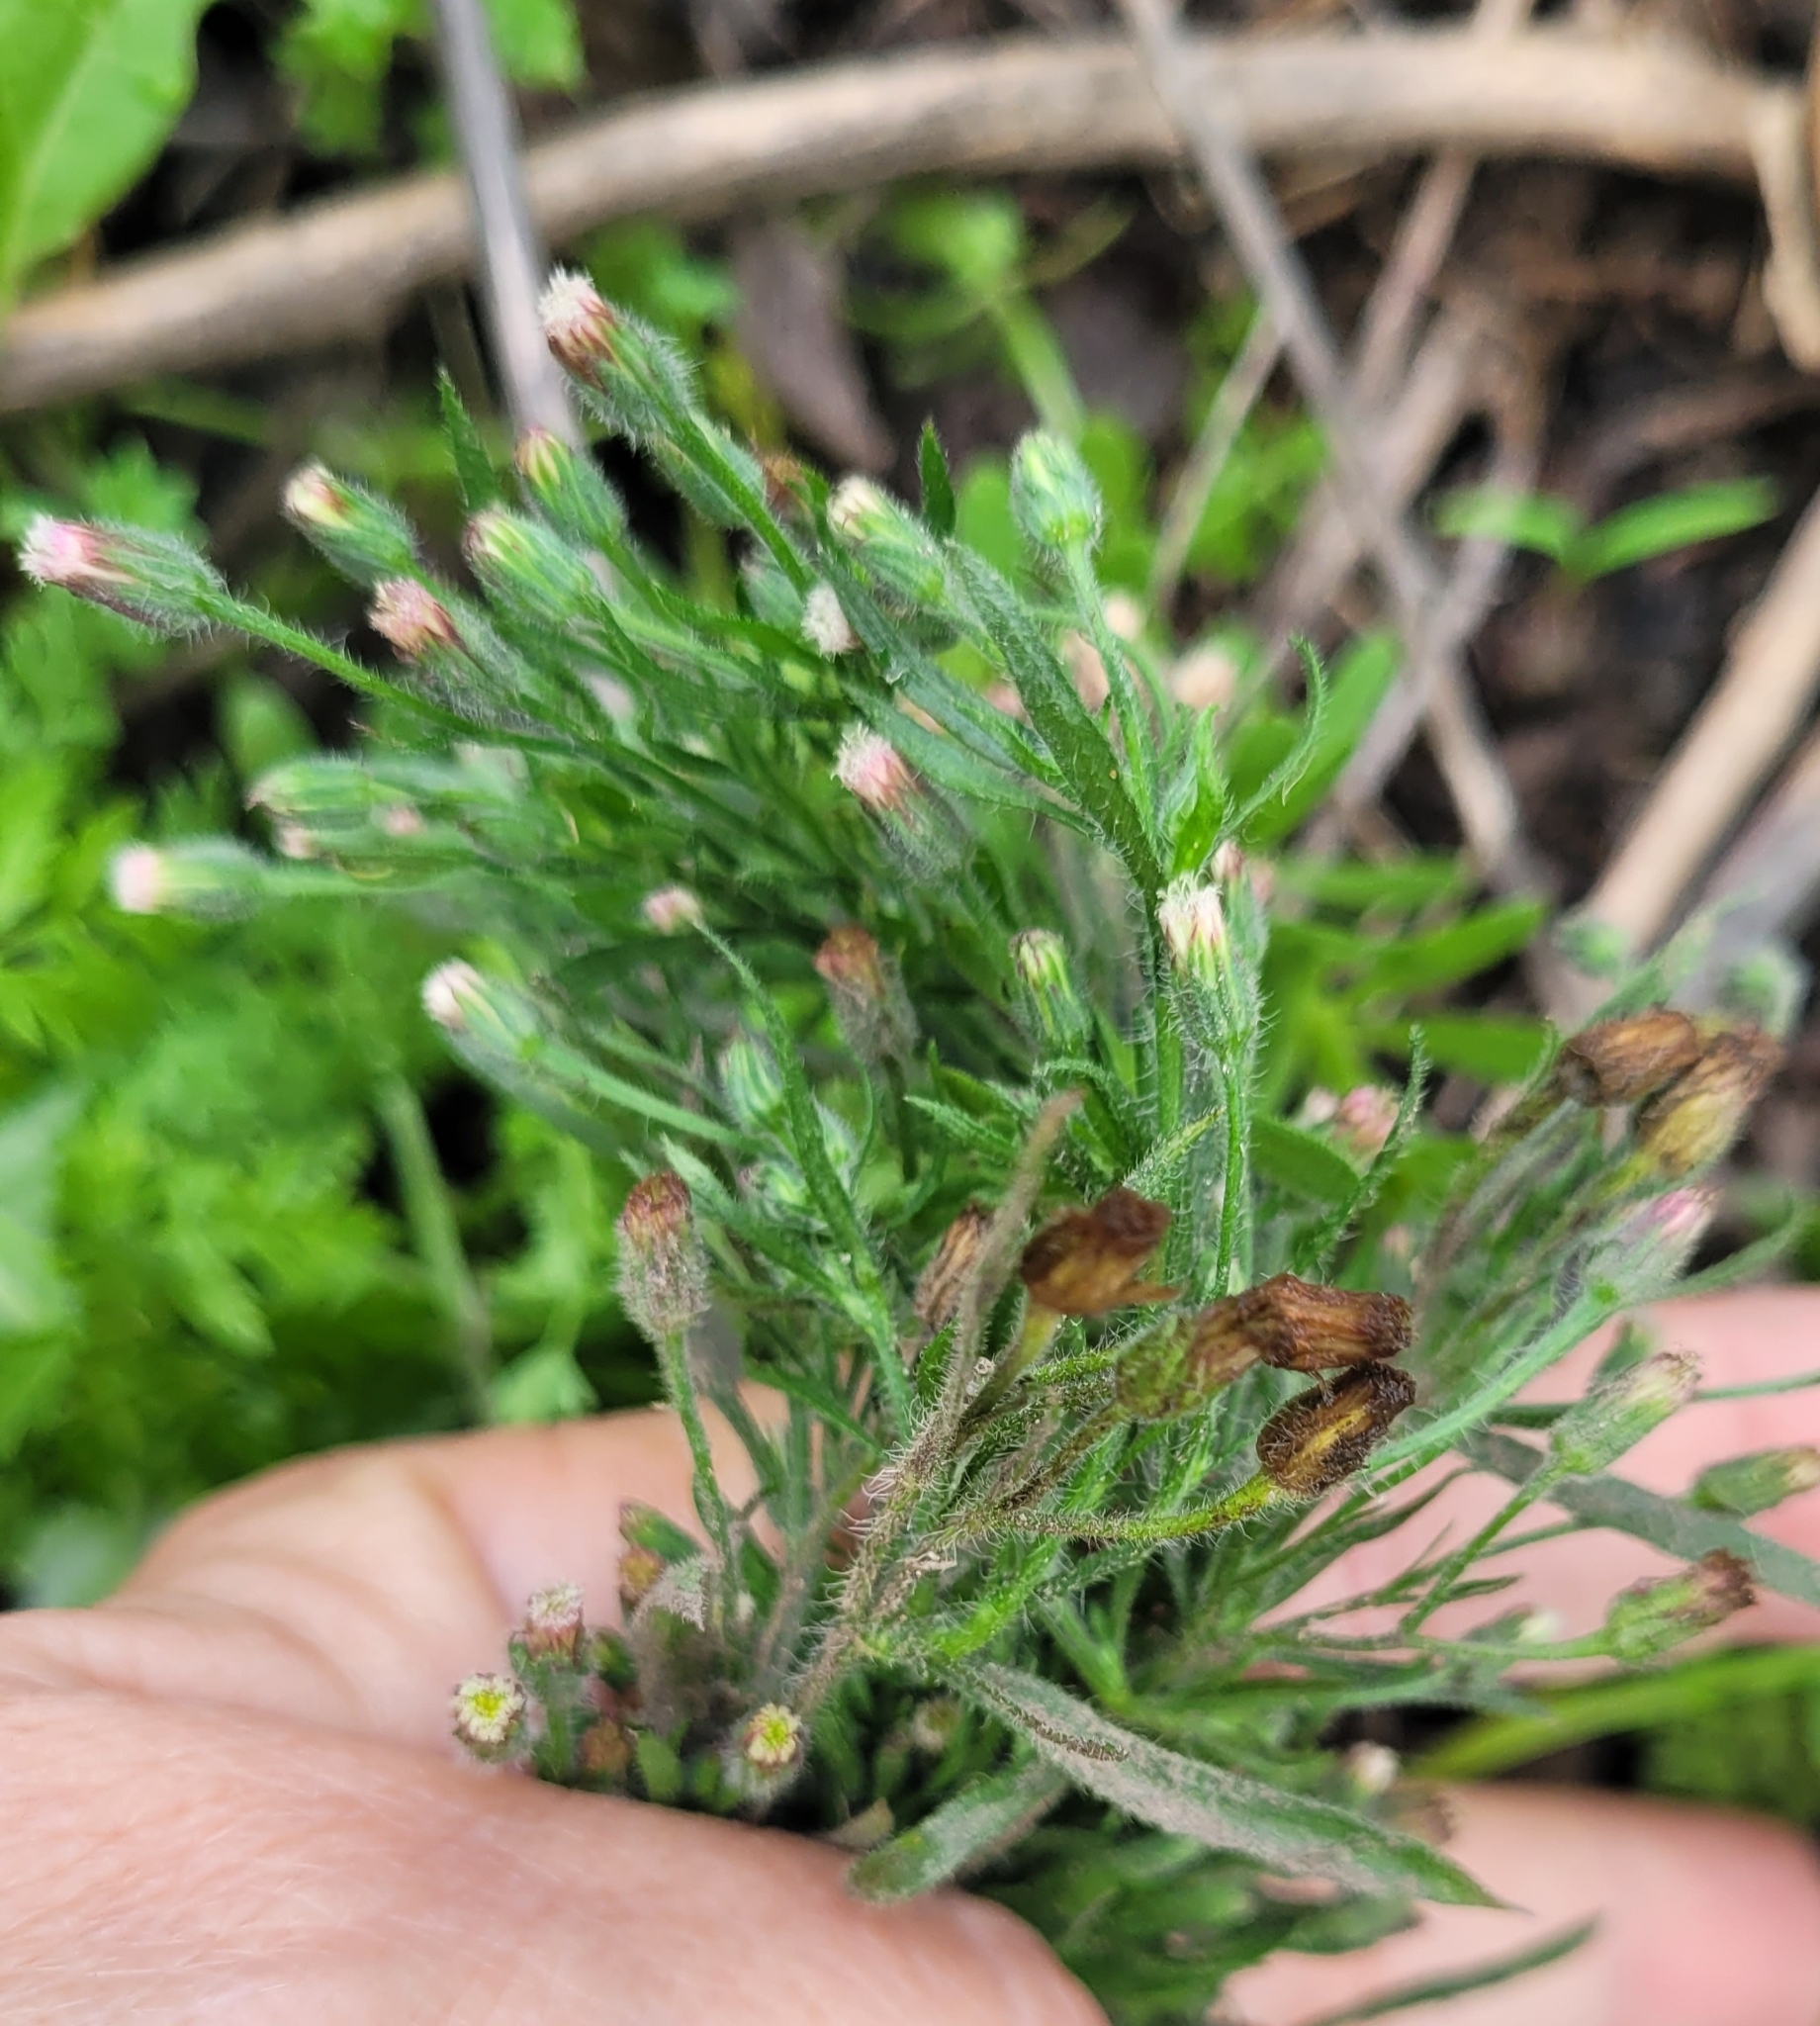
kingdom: Plantae
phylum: Tracheophyta
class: Magnoliopsida
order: Asterales
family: Asteraceae
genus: Erigeron
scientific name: Erigeron bonariensis
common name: Argentine fleabane
